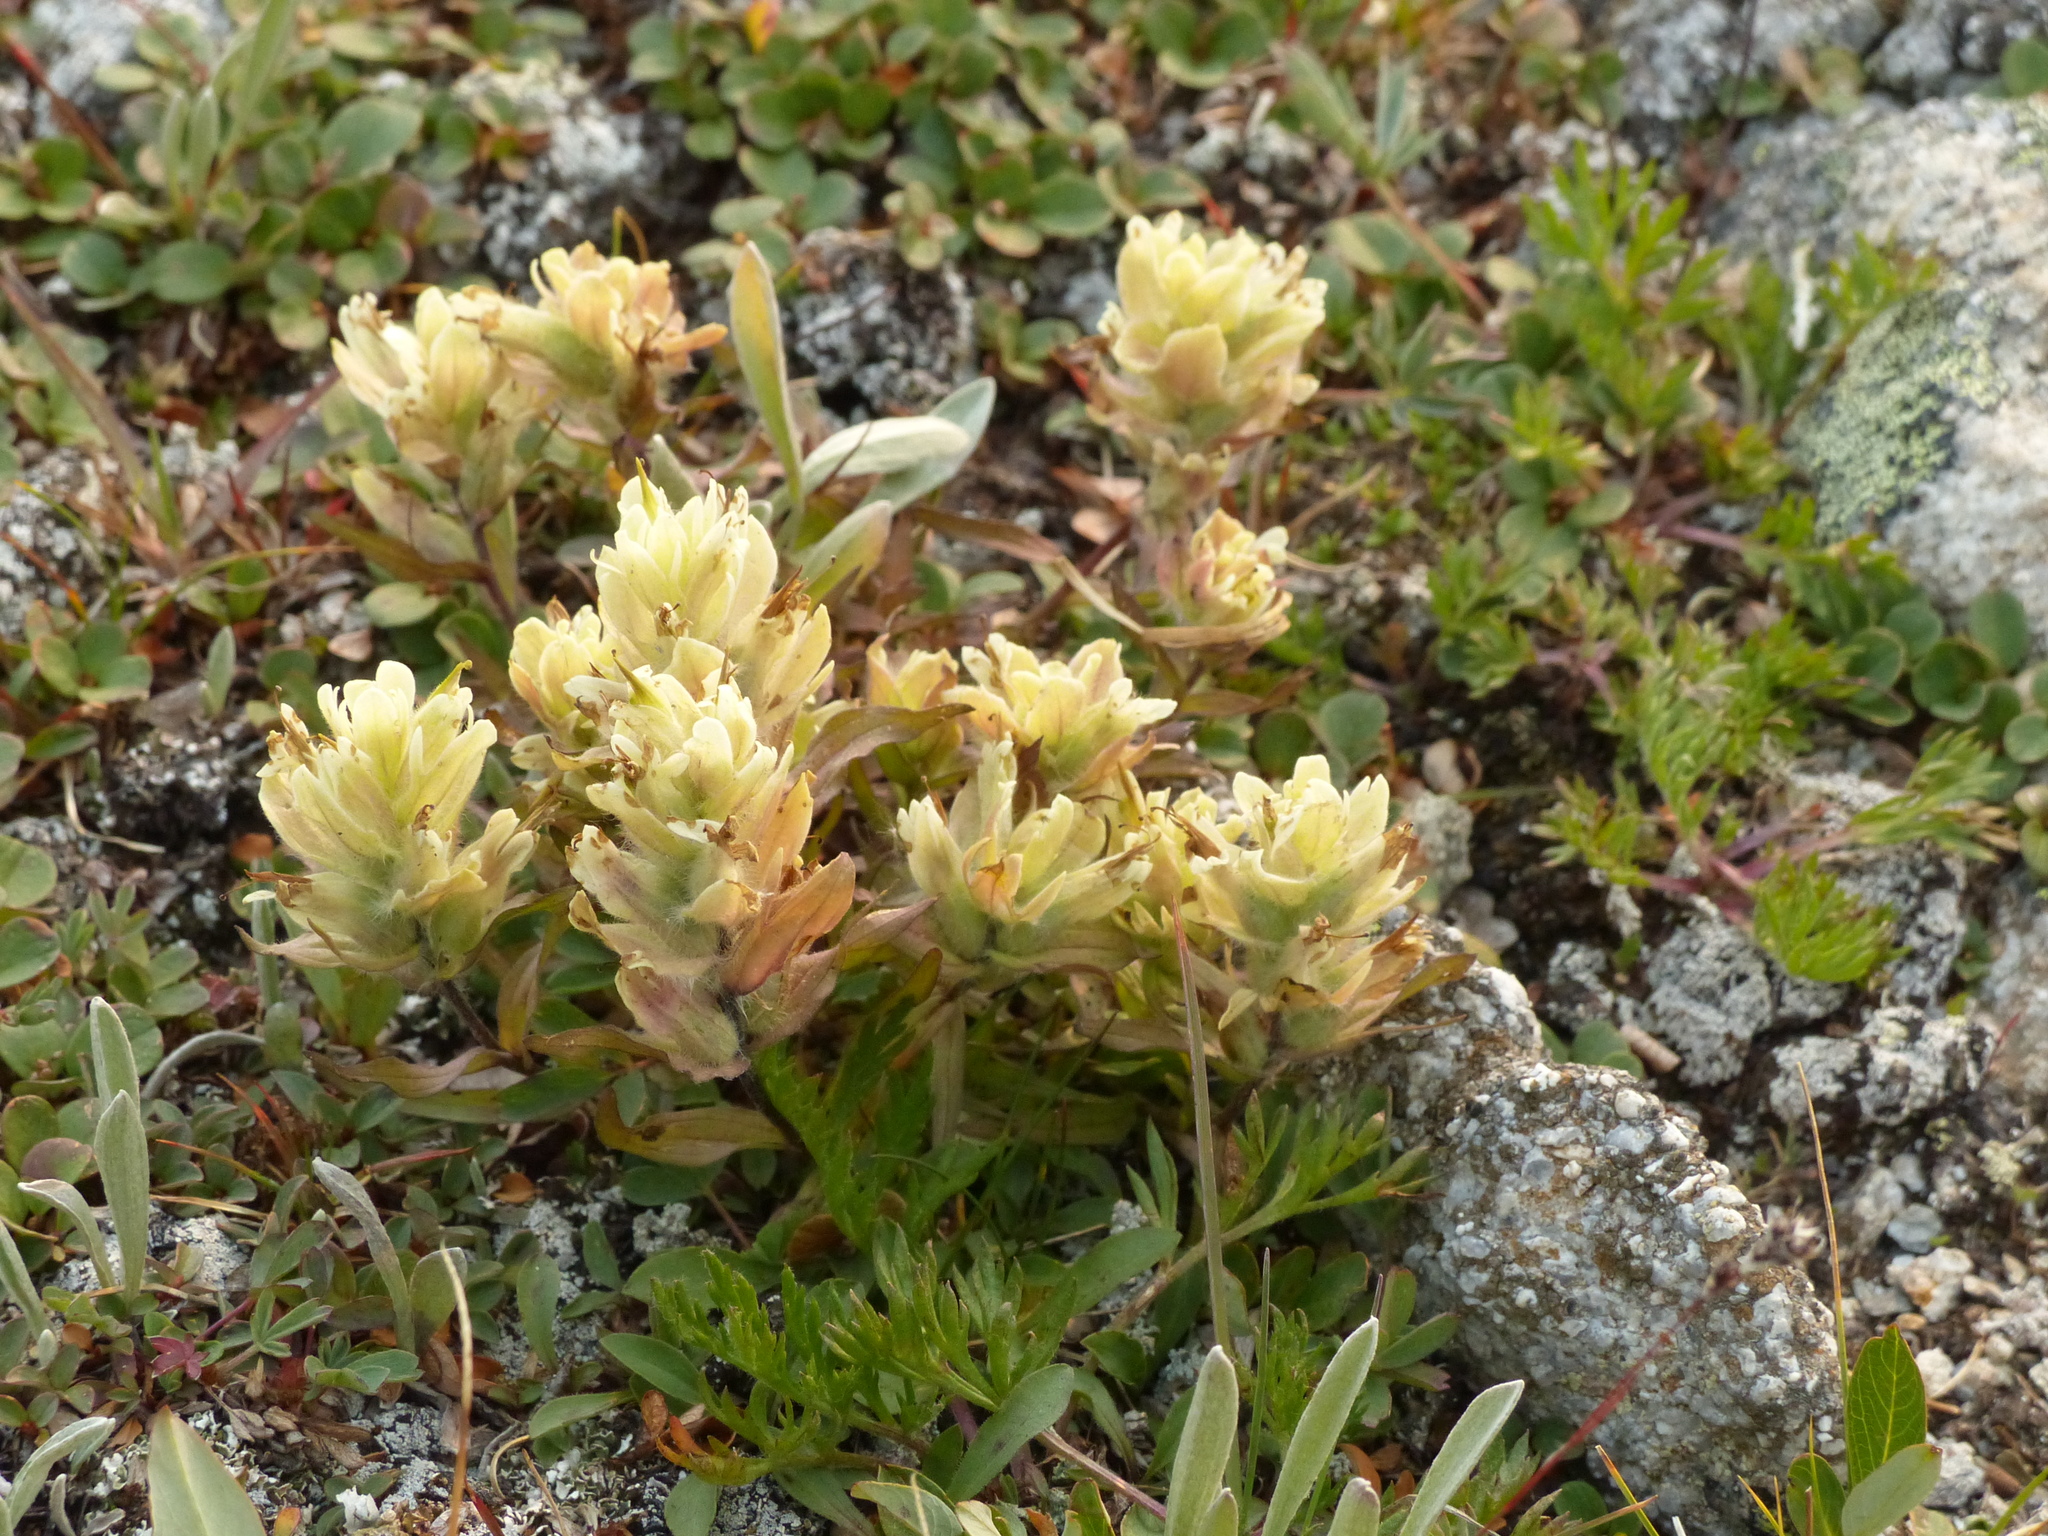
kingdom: Plantae
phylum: Tracheophyta
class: Magnoliopsida
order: Lamiales
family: Orobanchaceae
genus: Castilleja
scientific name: Castilleja occidentalis
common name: Western paintbrush
